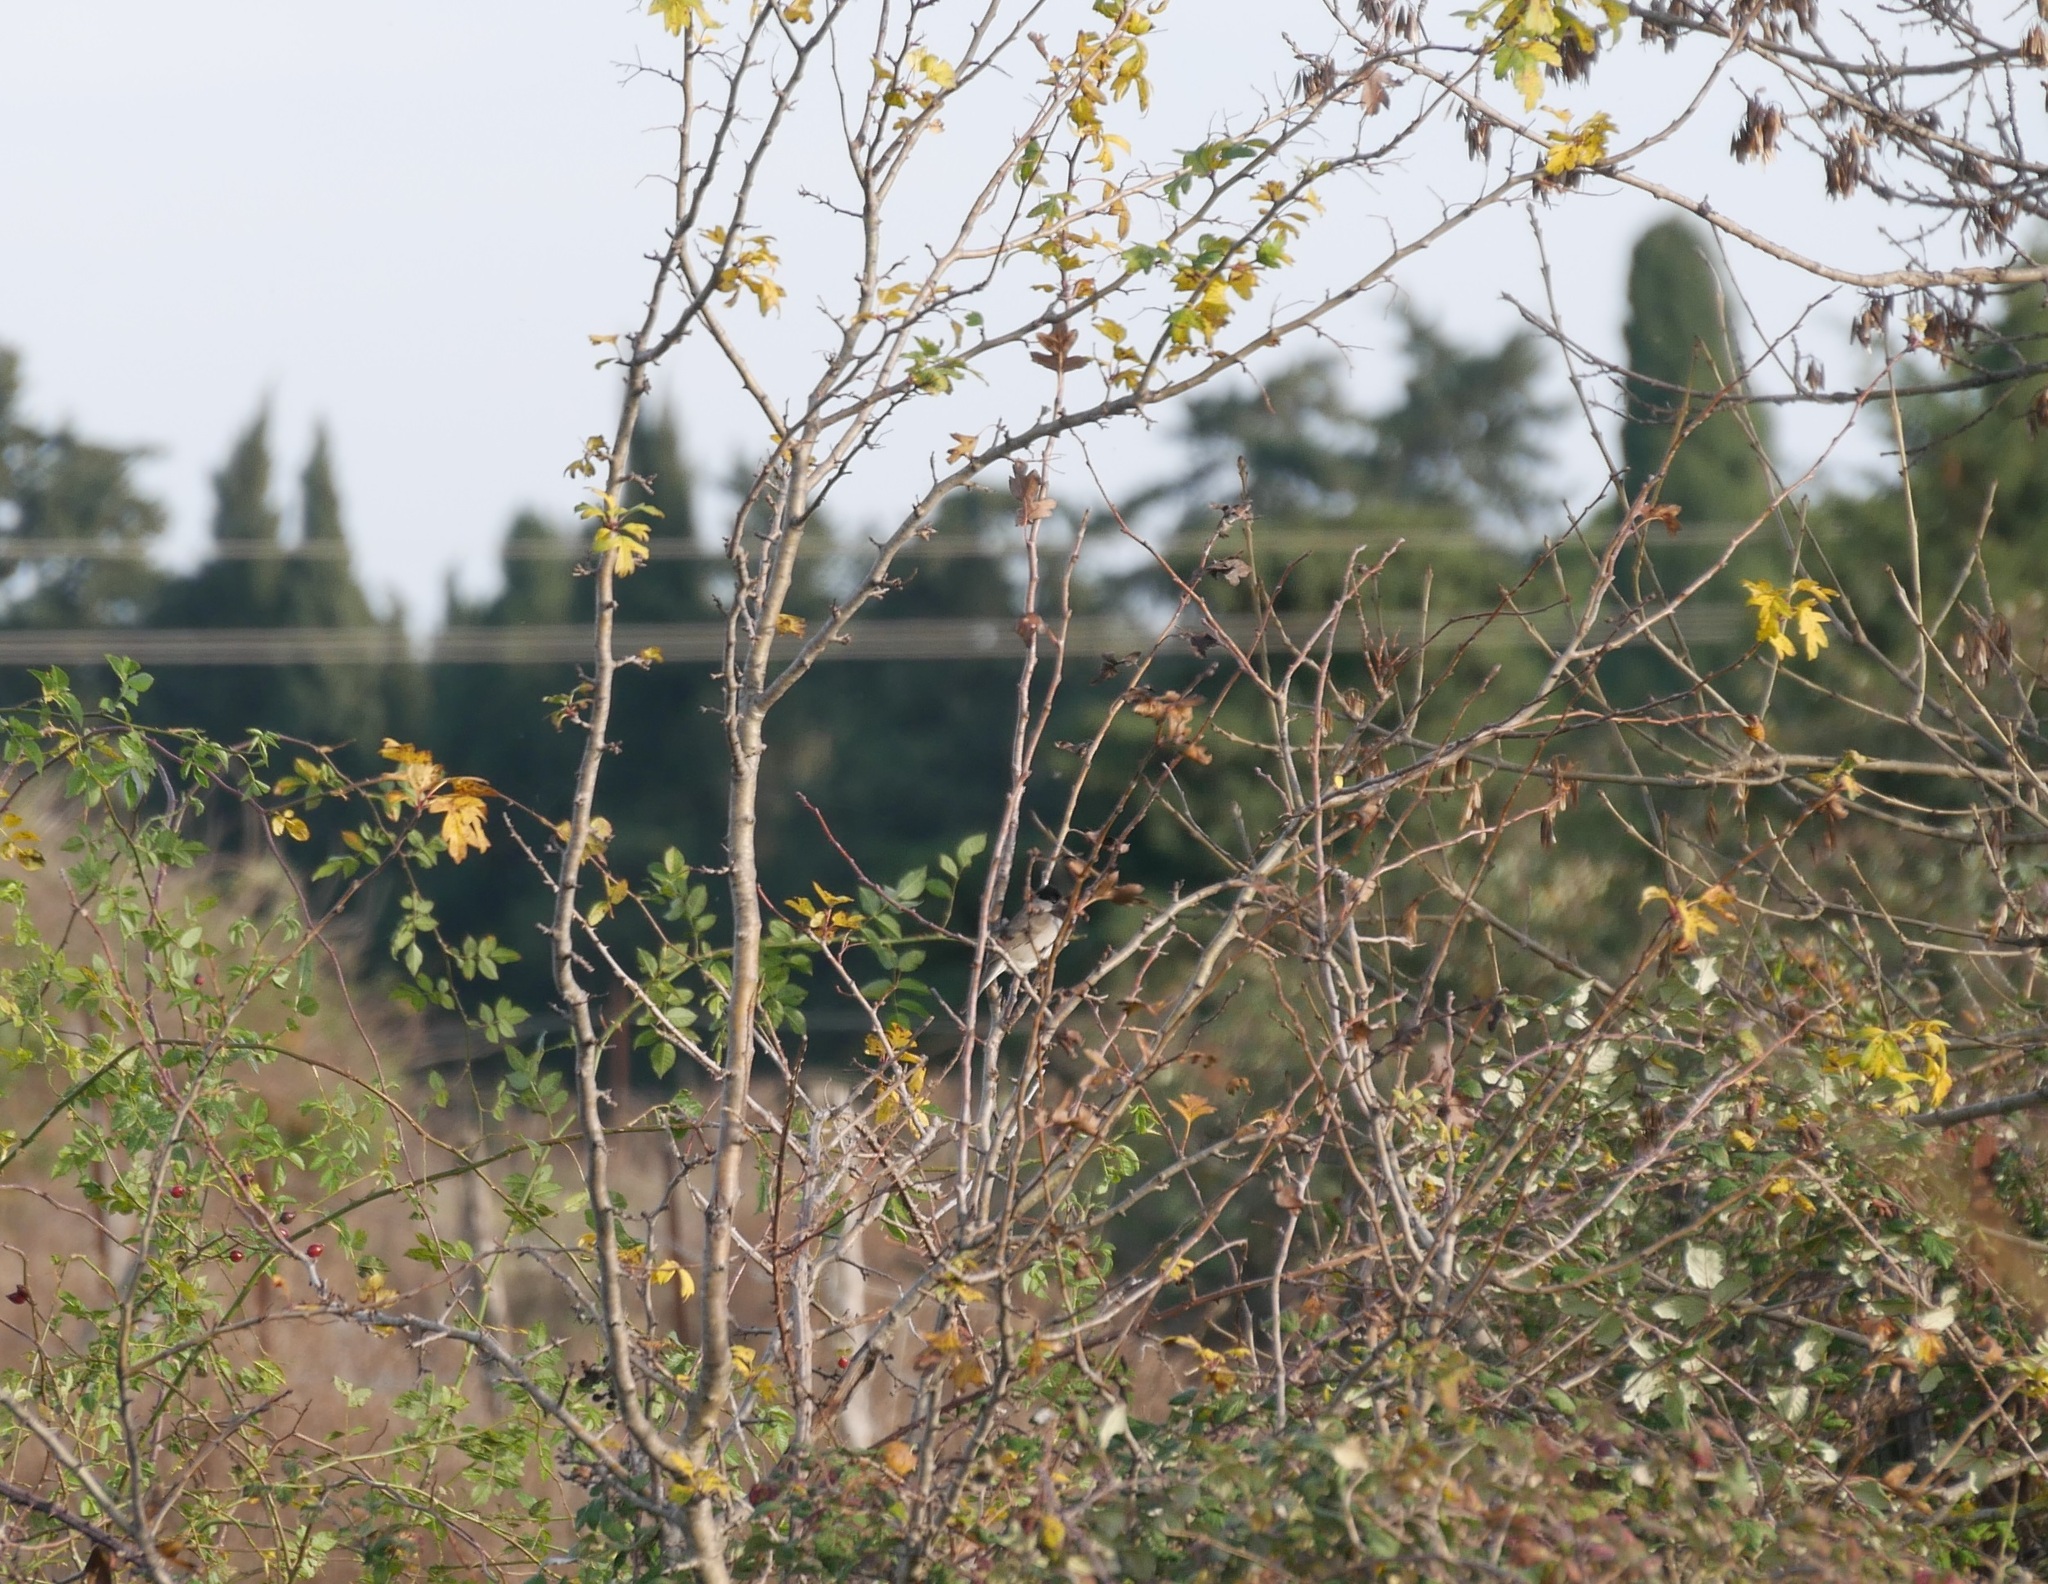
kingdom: Animalia
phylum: Chordata
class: Aves
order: Passeriformes
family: Sylviidae
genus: Sylvia
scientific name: Sylvia atricapilla
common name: Eurasian blackcap
